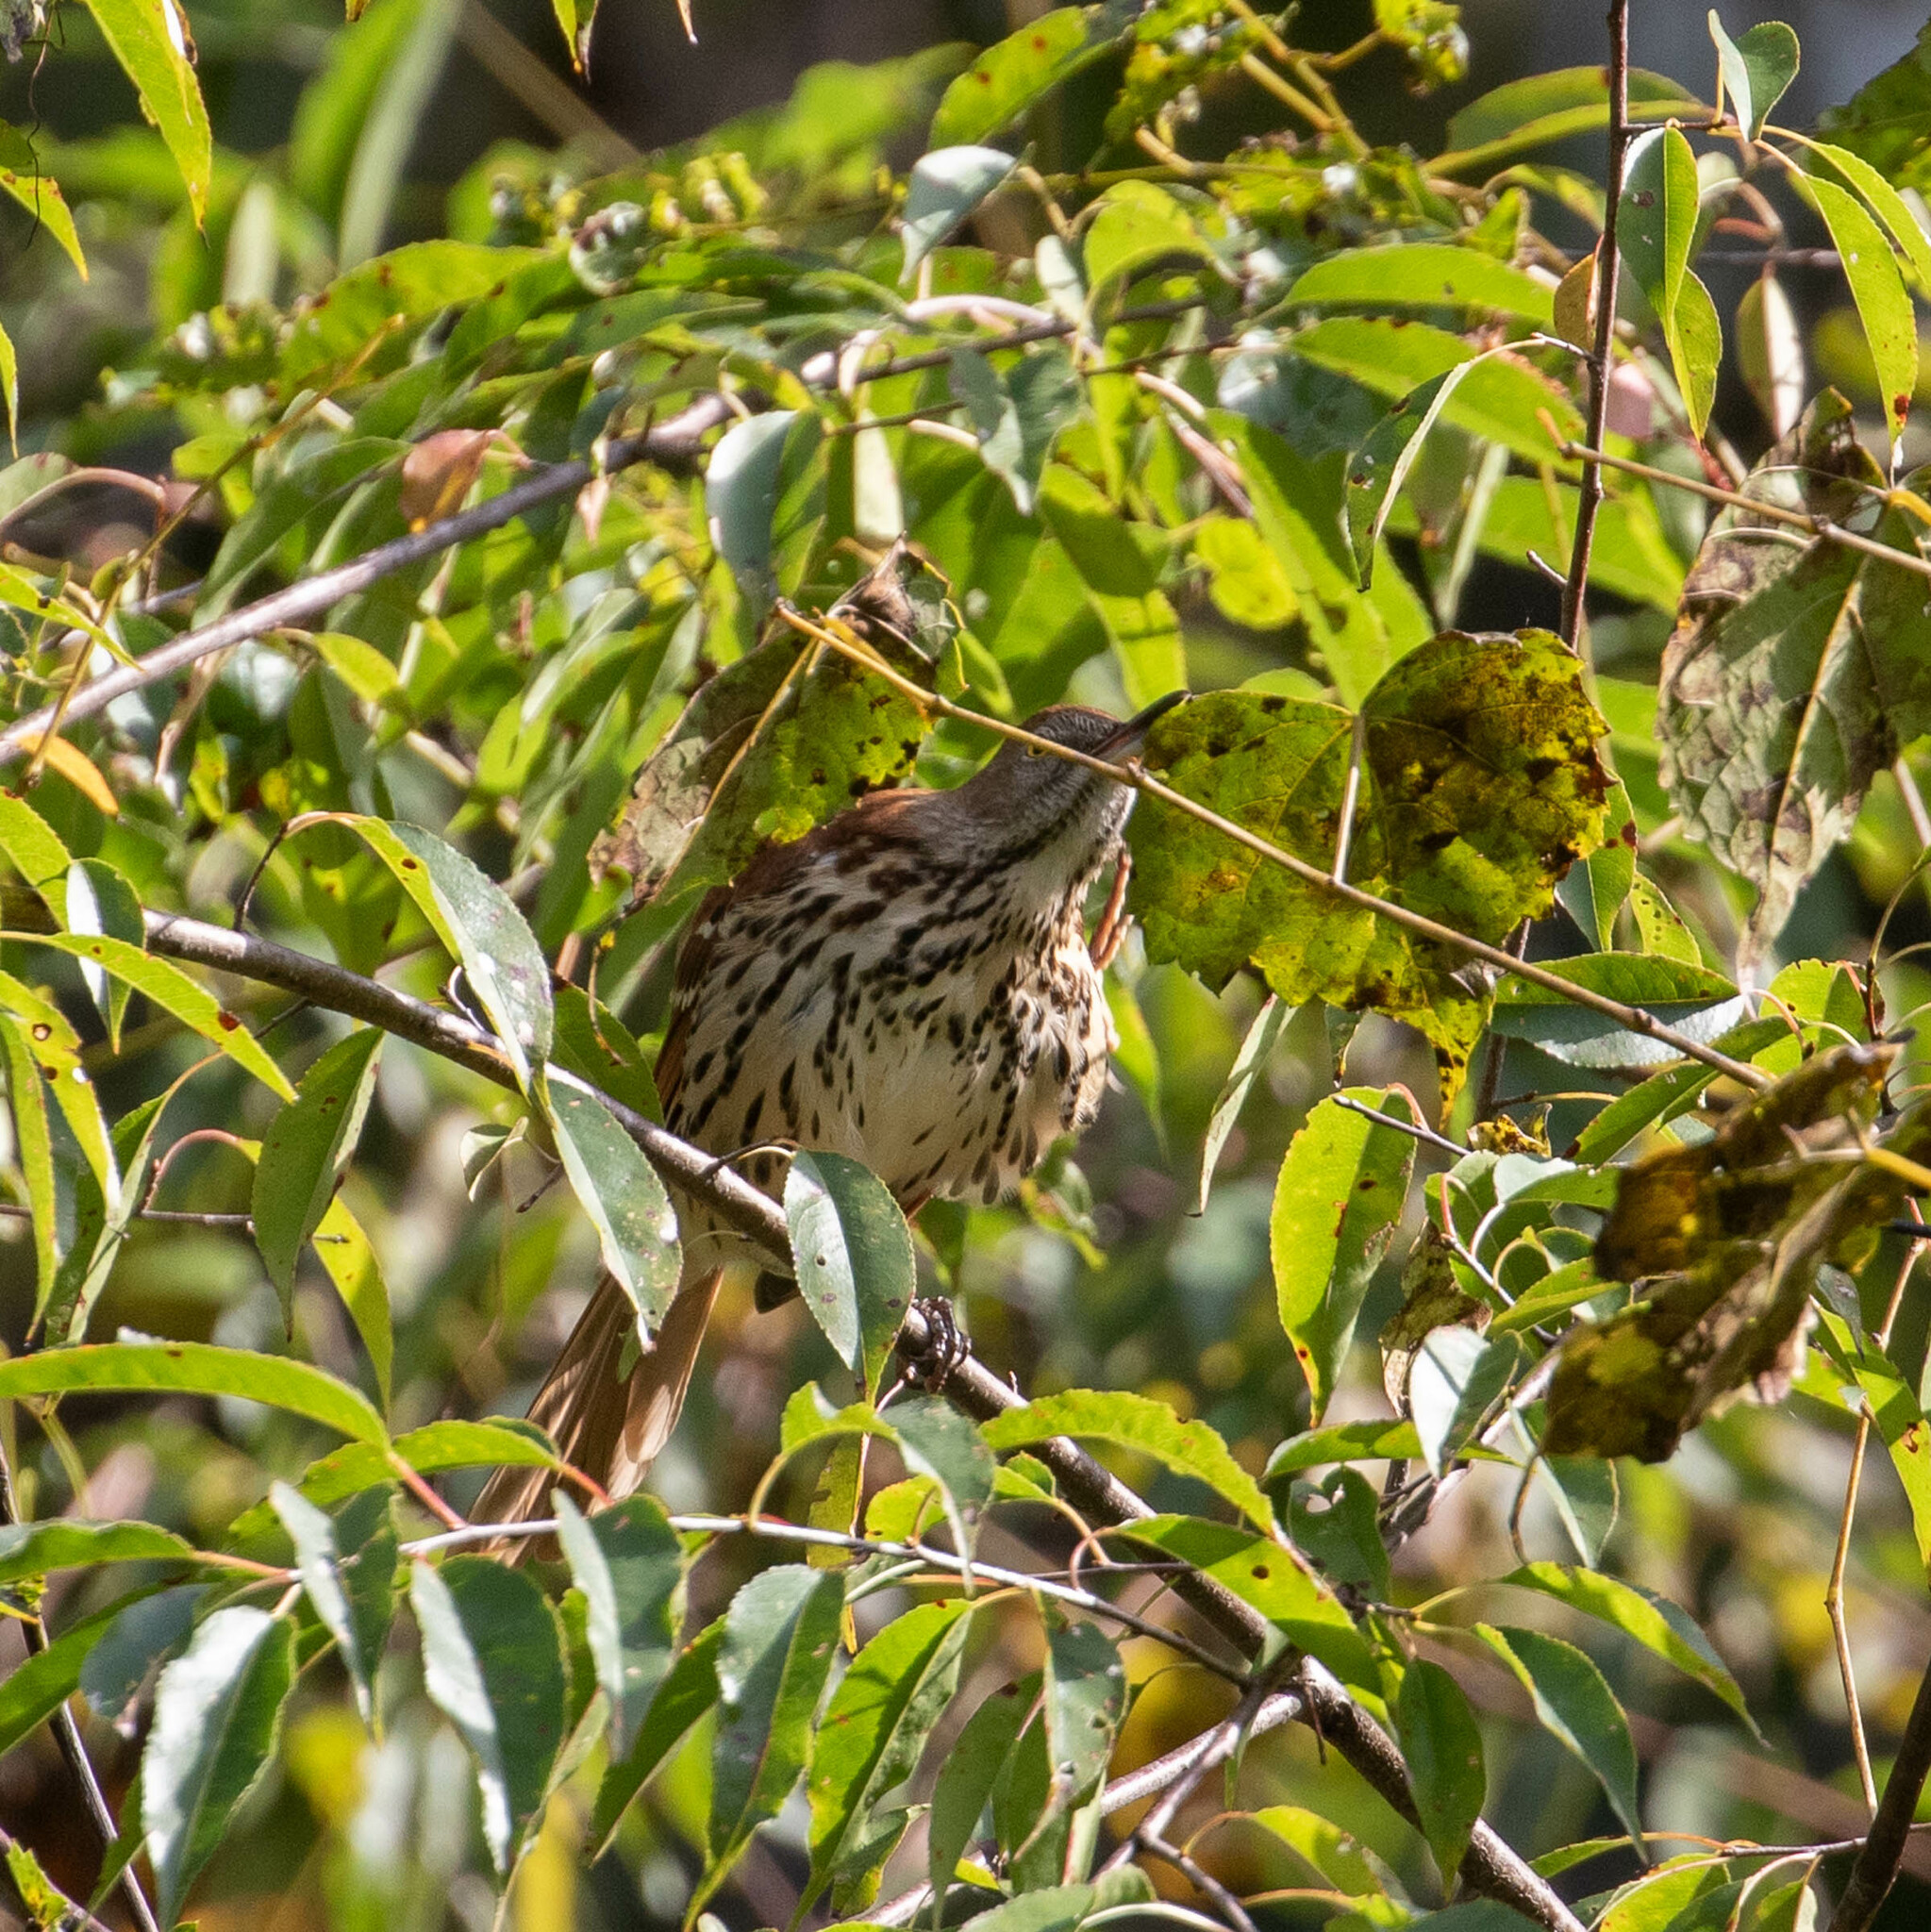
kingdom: Animalia
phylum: Chordata
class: Aves
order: Passeriformes
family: Mimidae
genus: Toxostoma
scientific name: Toxostoma rufum
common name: Brown thrasher
